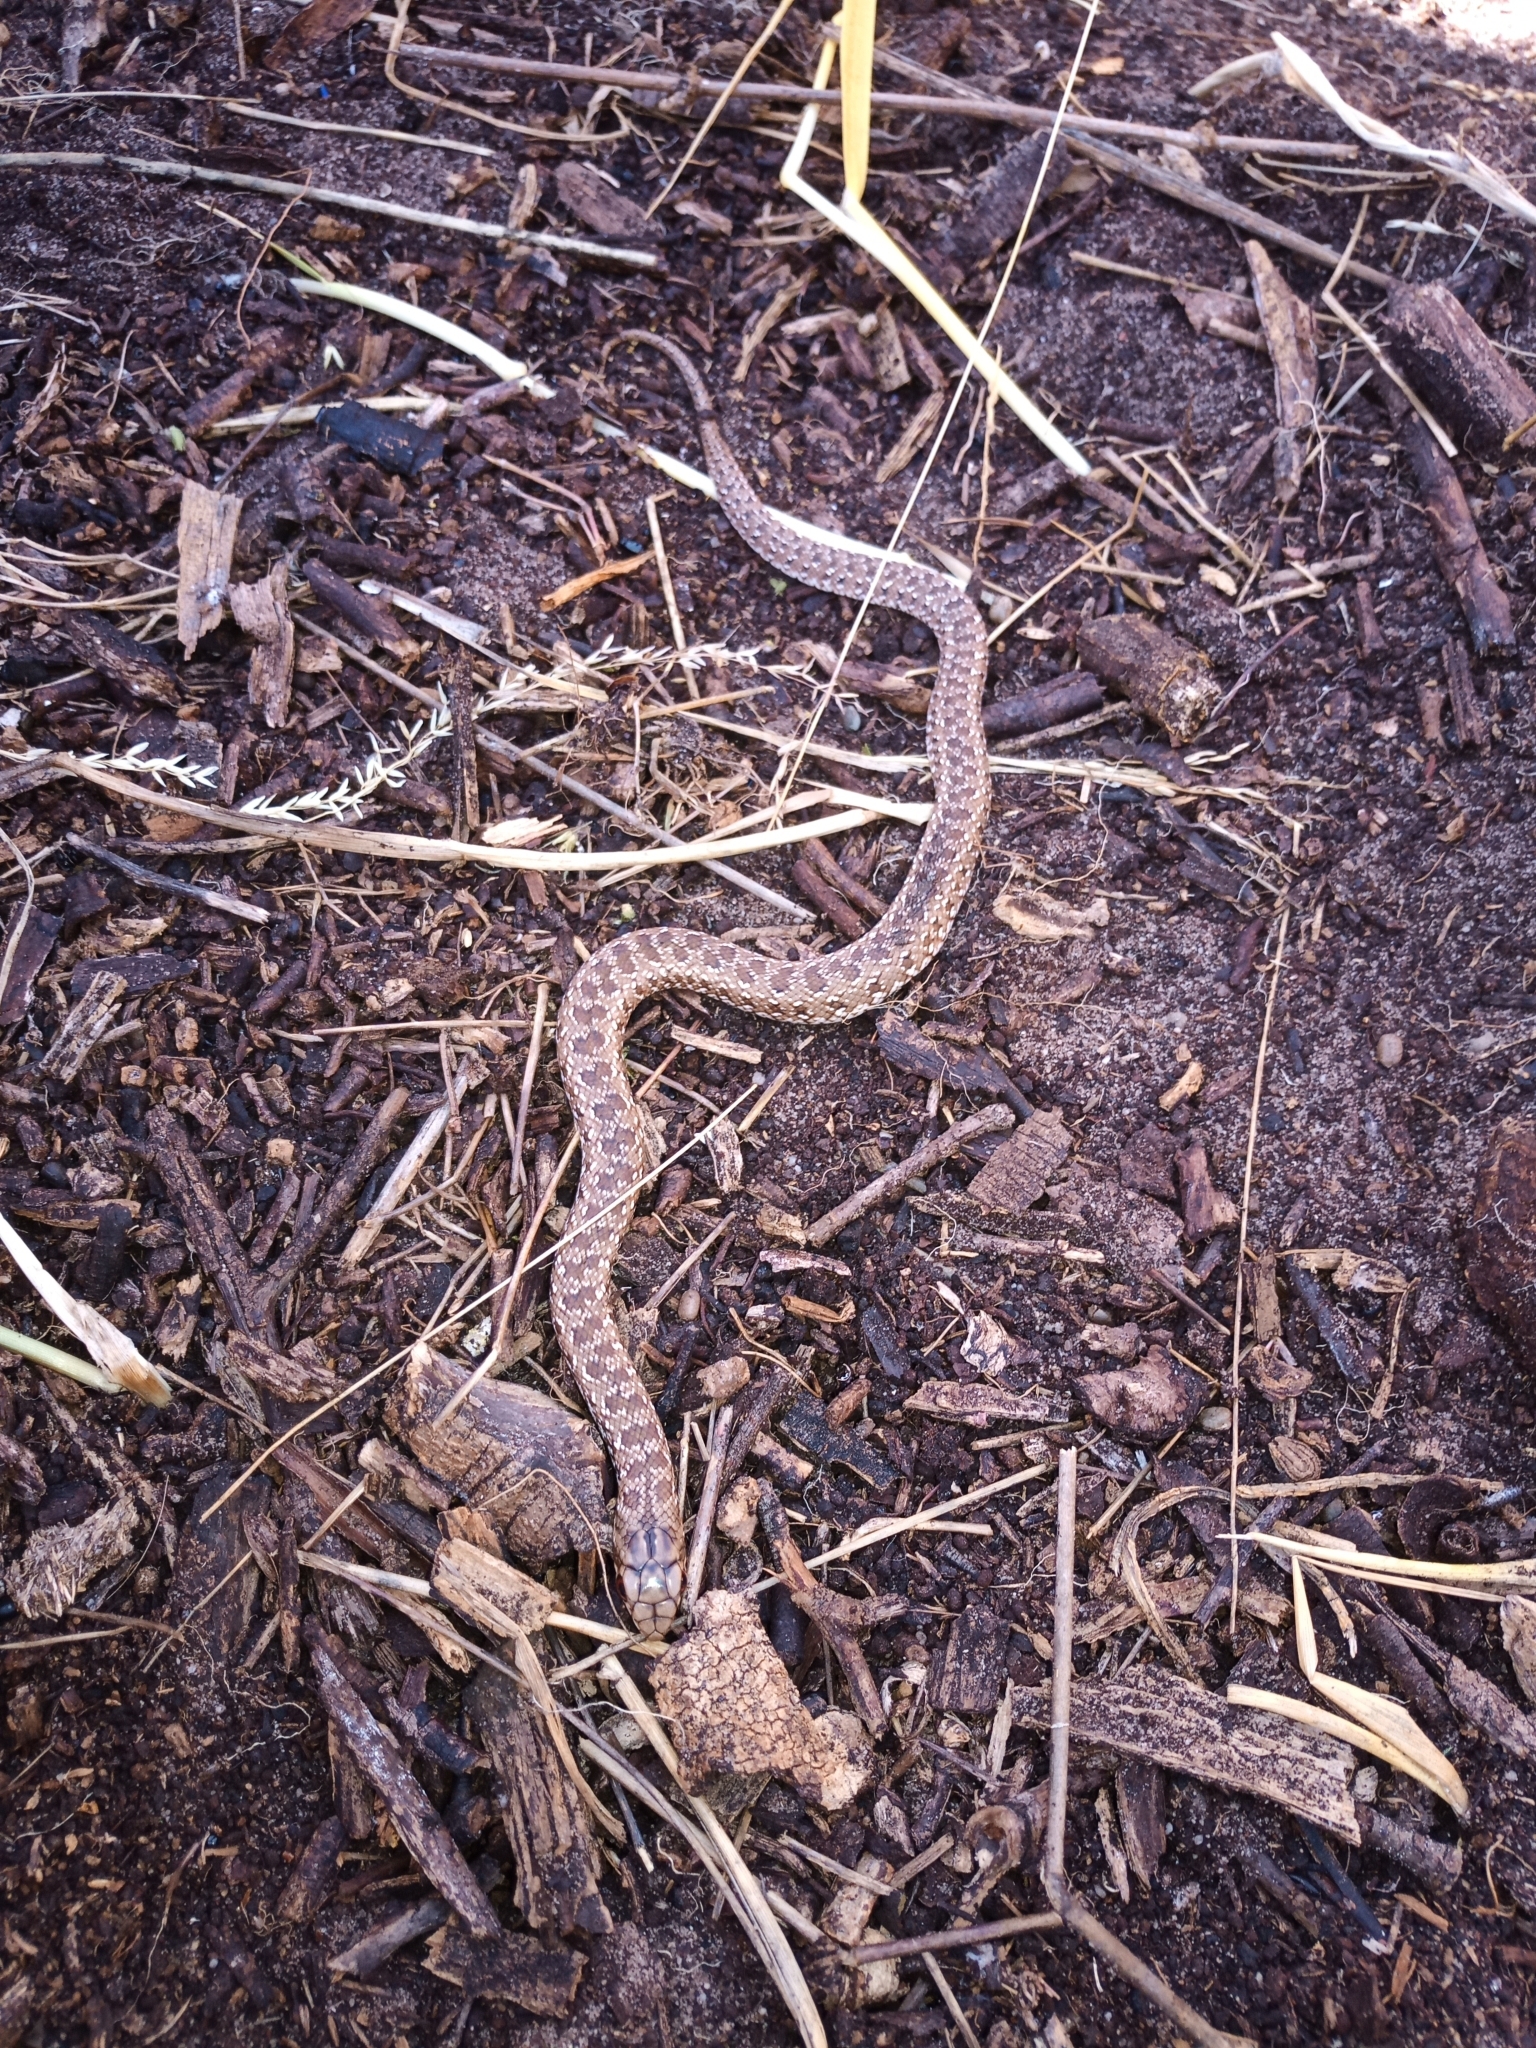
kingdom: Animalia
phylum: Chordata
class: Squamata
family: Pseudaspididae
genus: Pseudaspis
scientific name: Pseudaspis cana
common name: Mole snake
